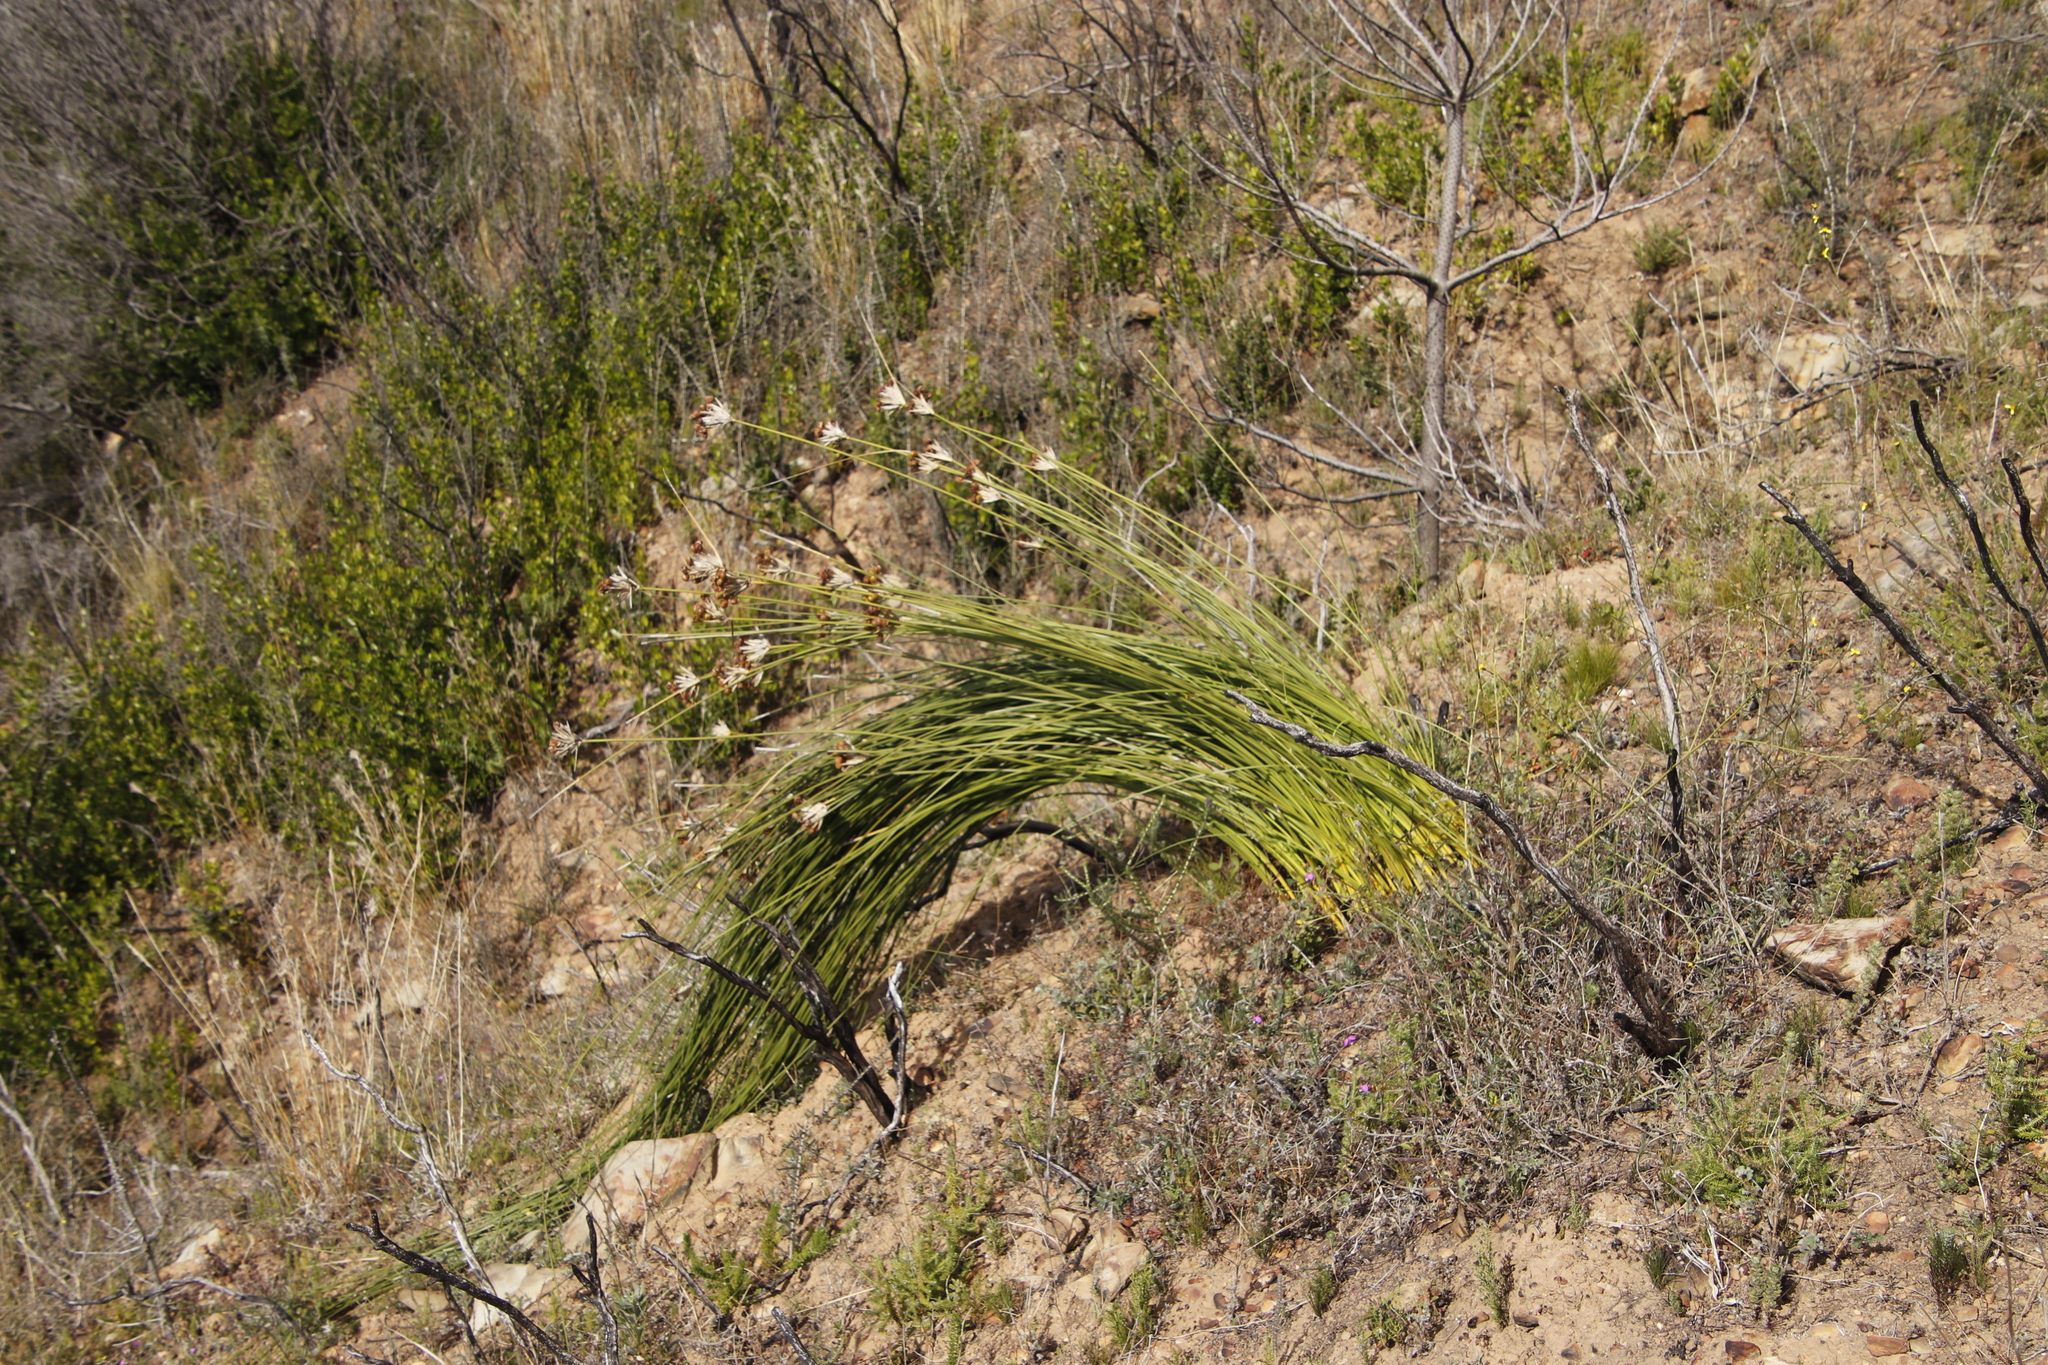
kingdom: Plantae
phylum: Tracheophyta
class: Liliopsida
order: Asparagales
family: Iridaceae
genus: Bobartia
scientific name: Bobartia indica
